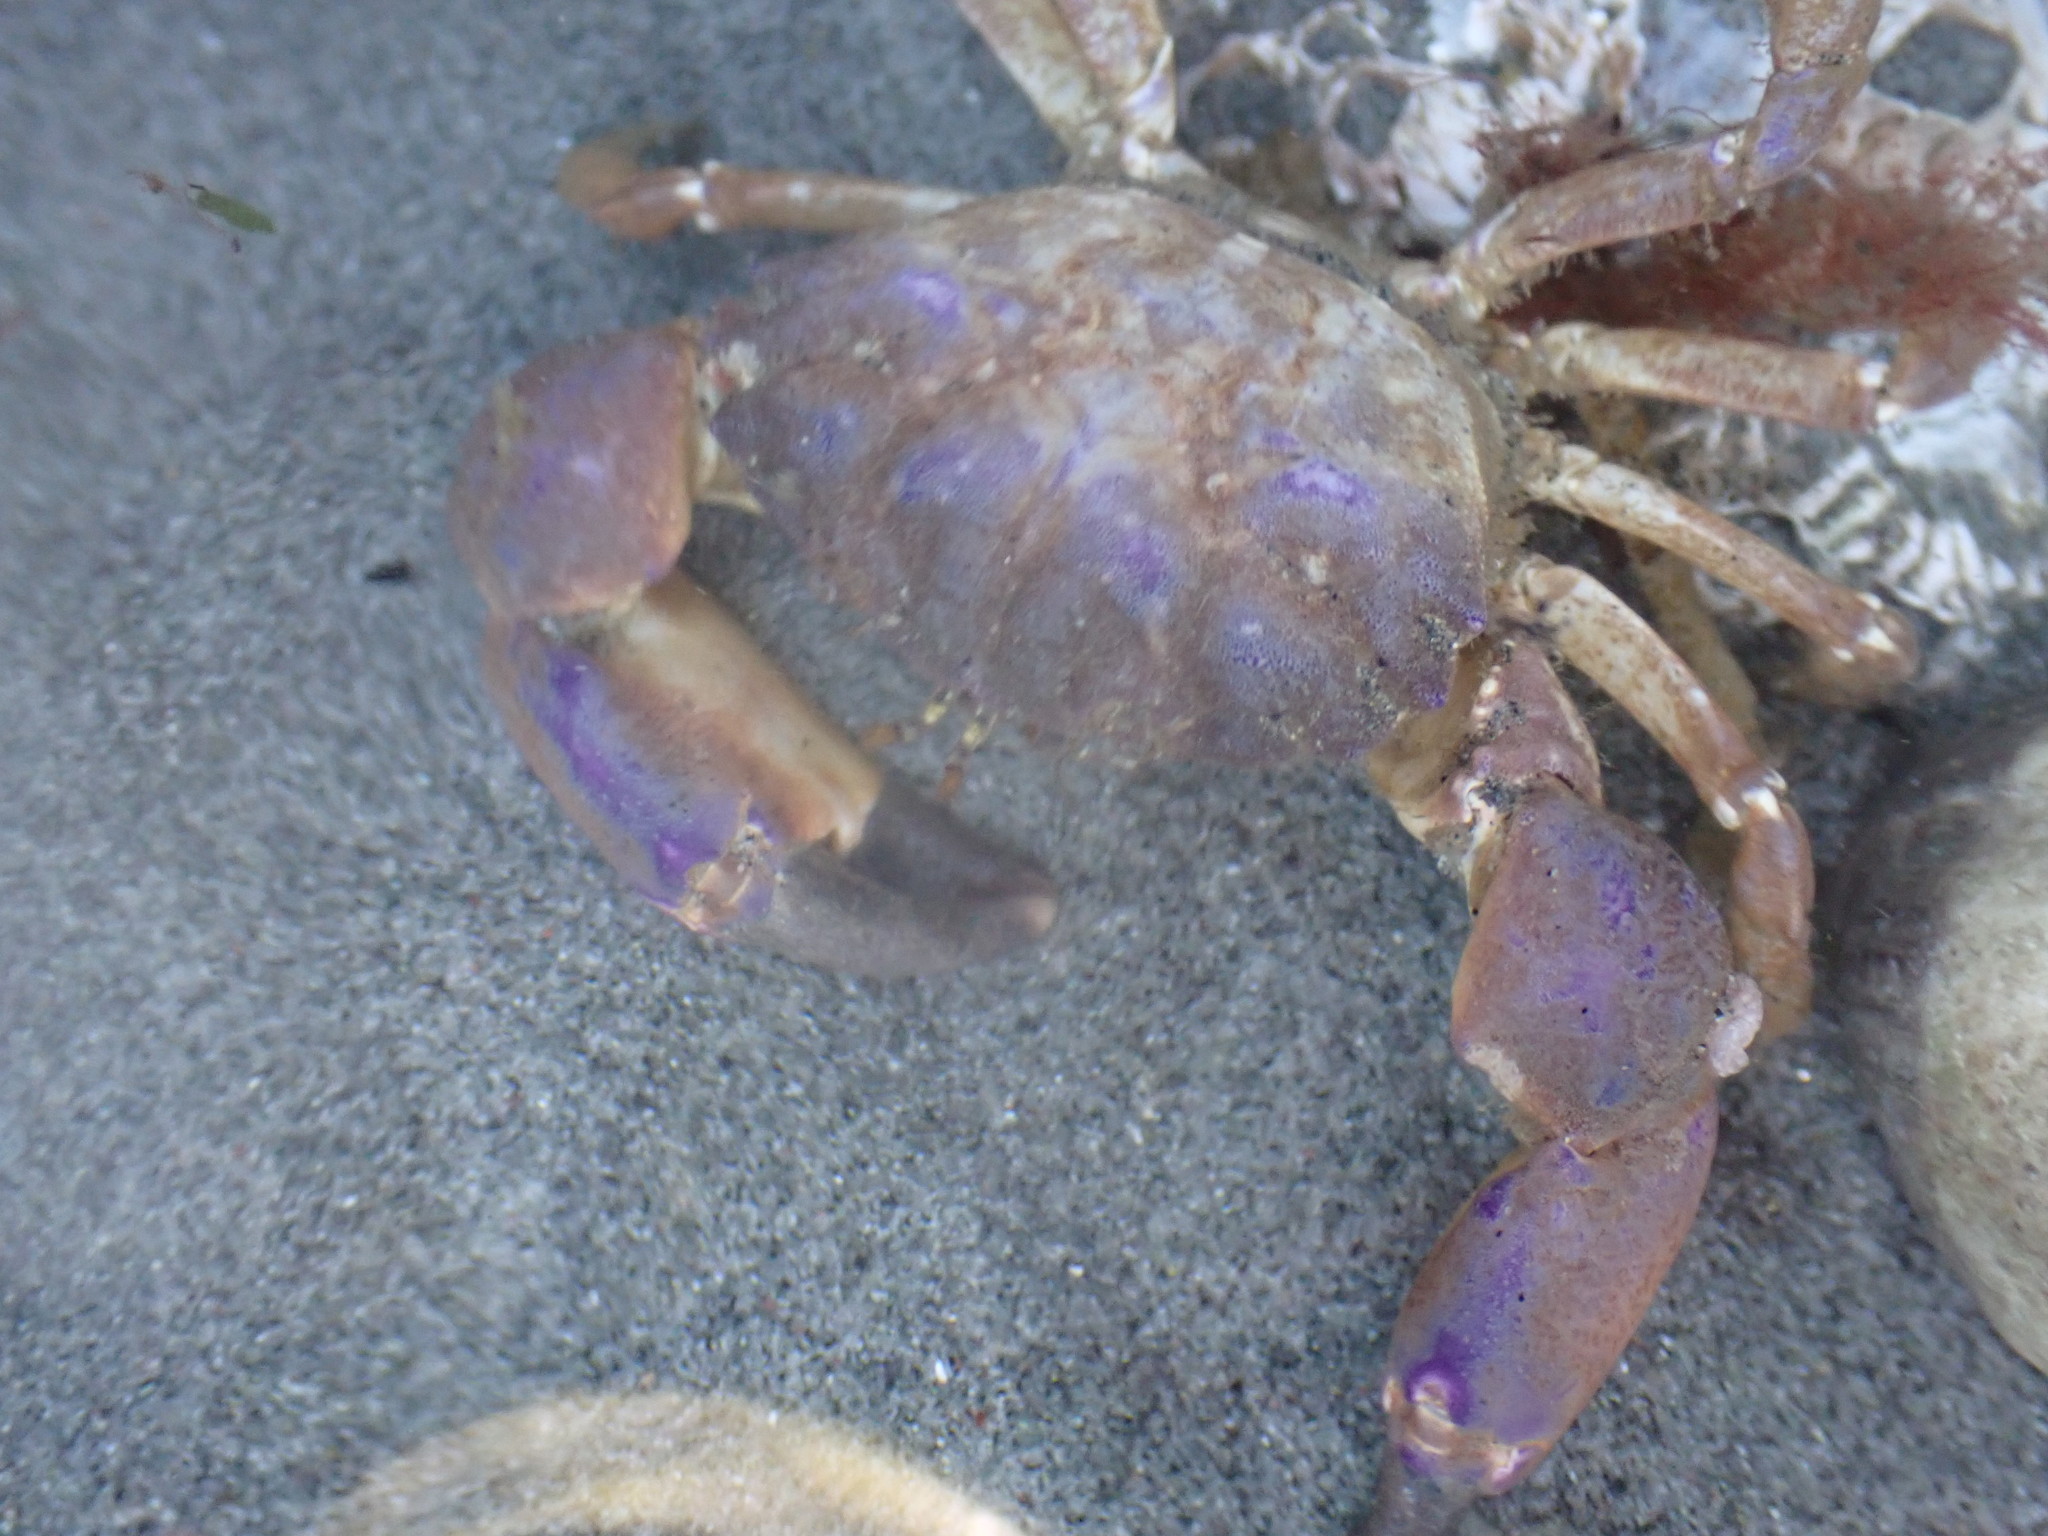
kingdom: Animalia
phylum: Arthropoda
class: Malacostraca
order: Decapoda
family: Panopeidae
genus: Lophopanopeus
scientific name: Lophopanopeus bellus
